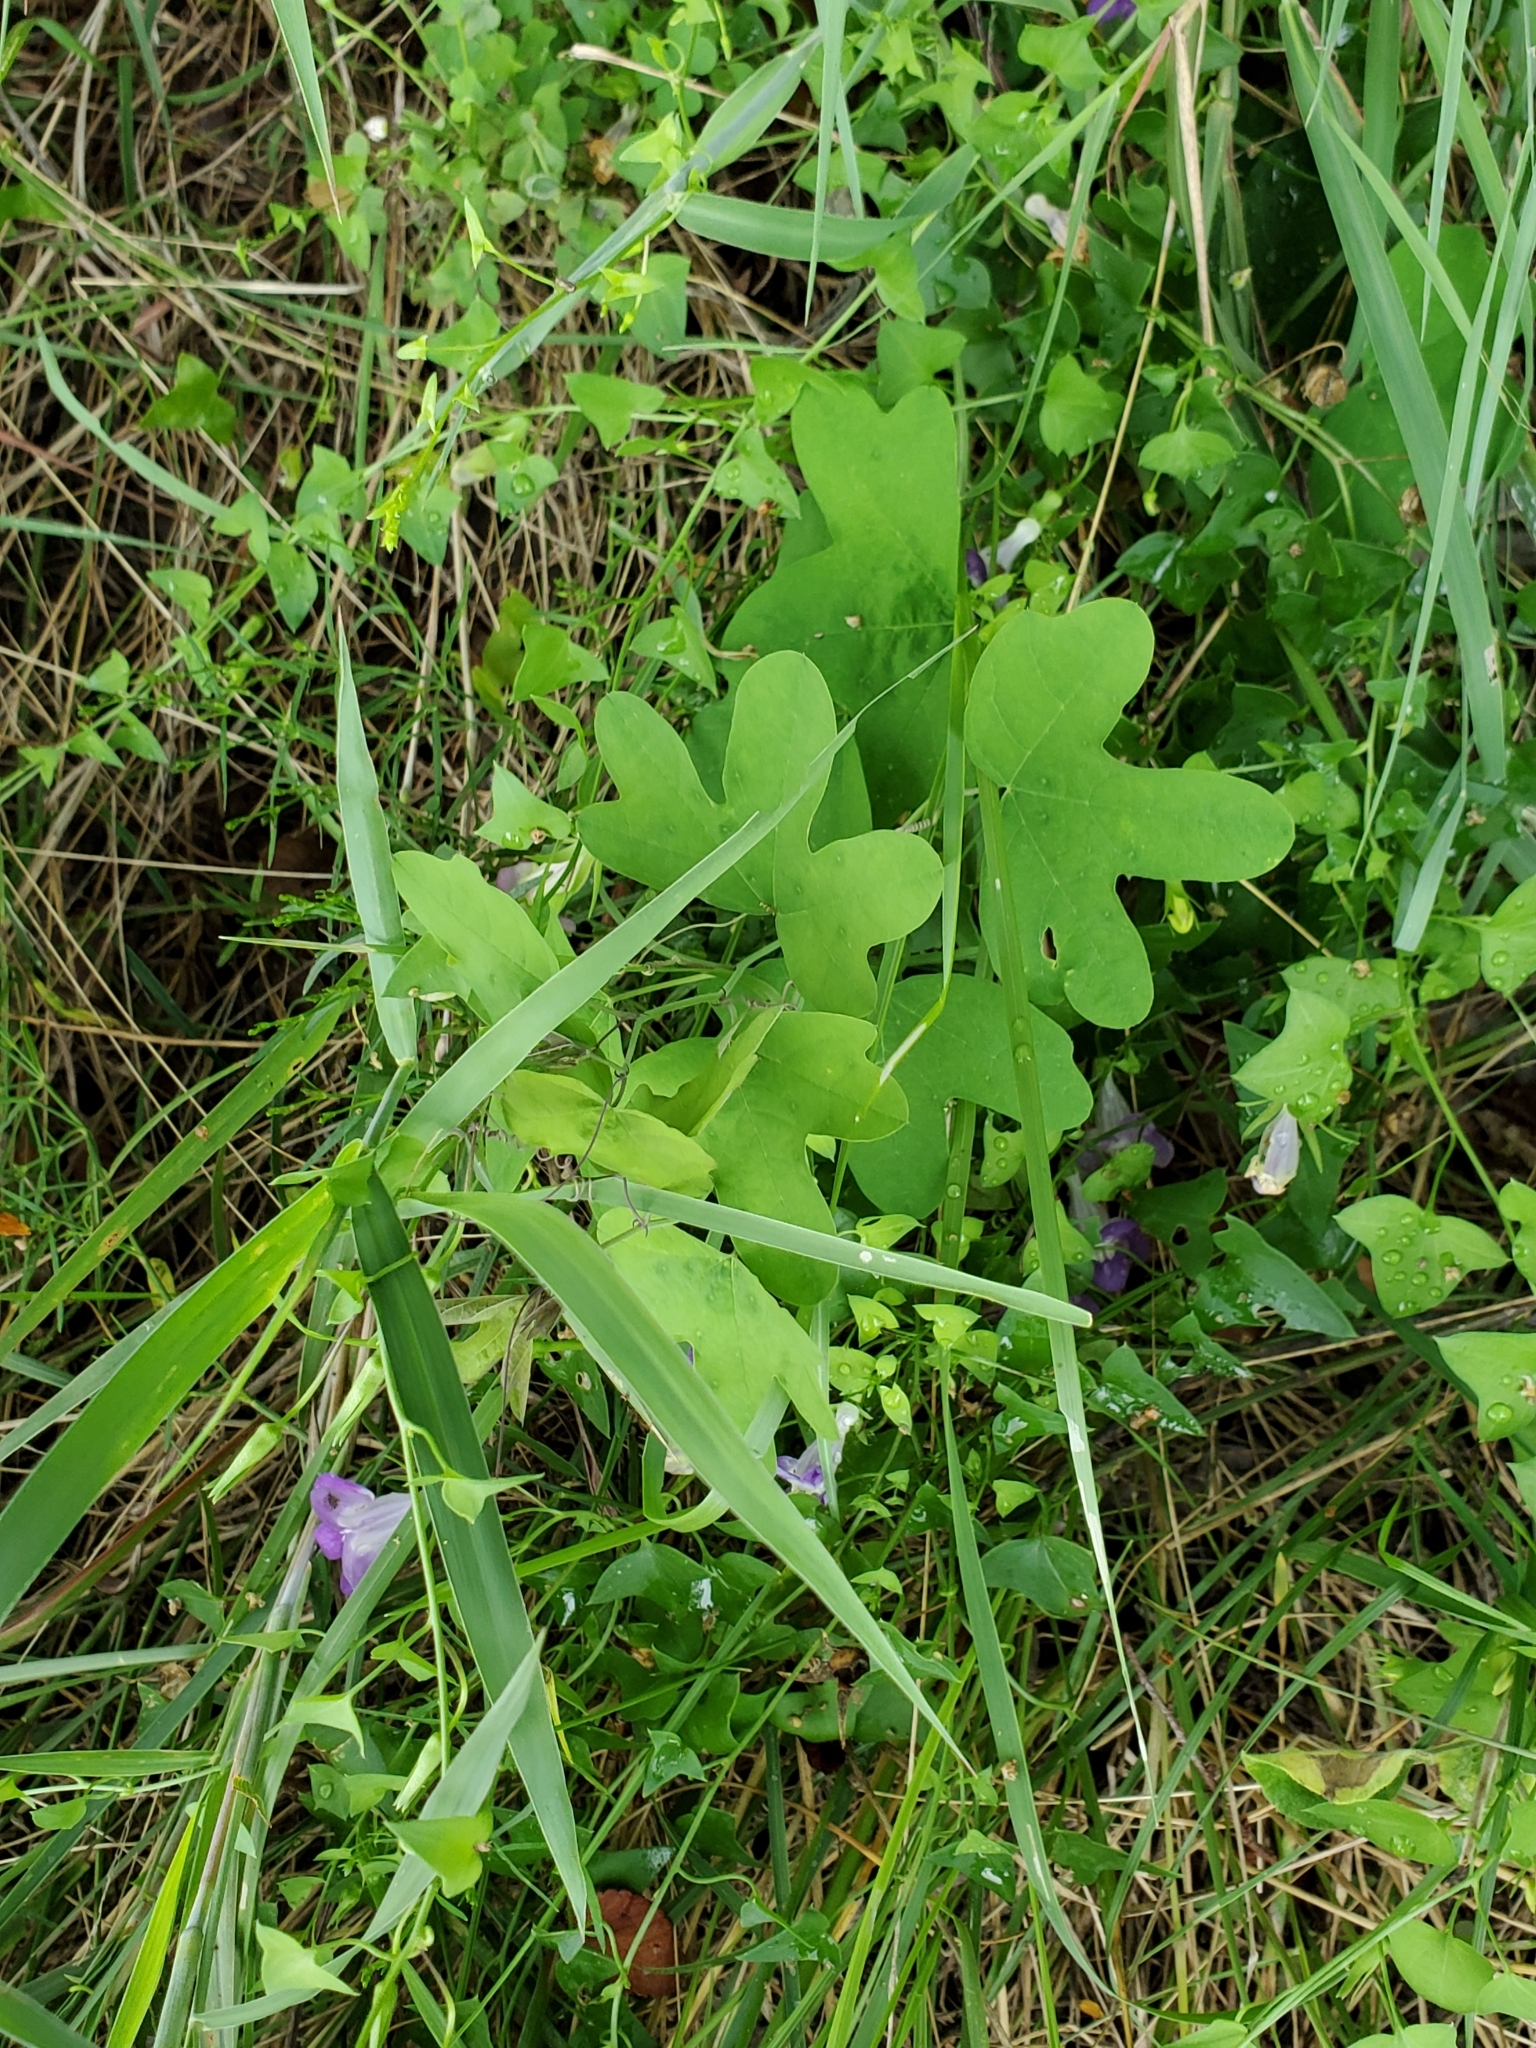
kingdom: Plantae
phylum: Tracheophyta
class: Magnoliopsida
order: Malpighiales
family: Passifloraceae
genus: Passiflora
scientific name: Passiflora affinis
